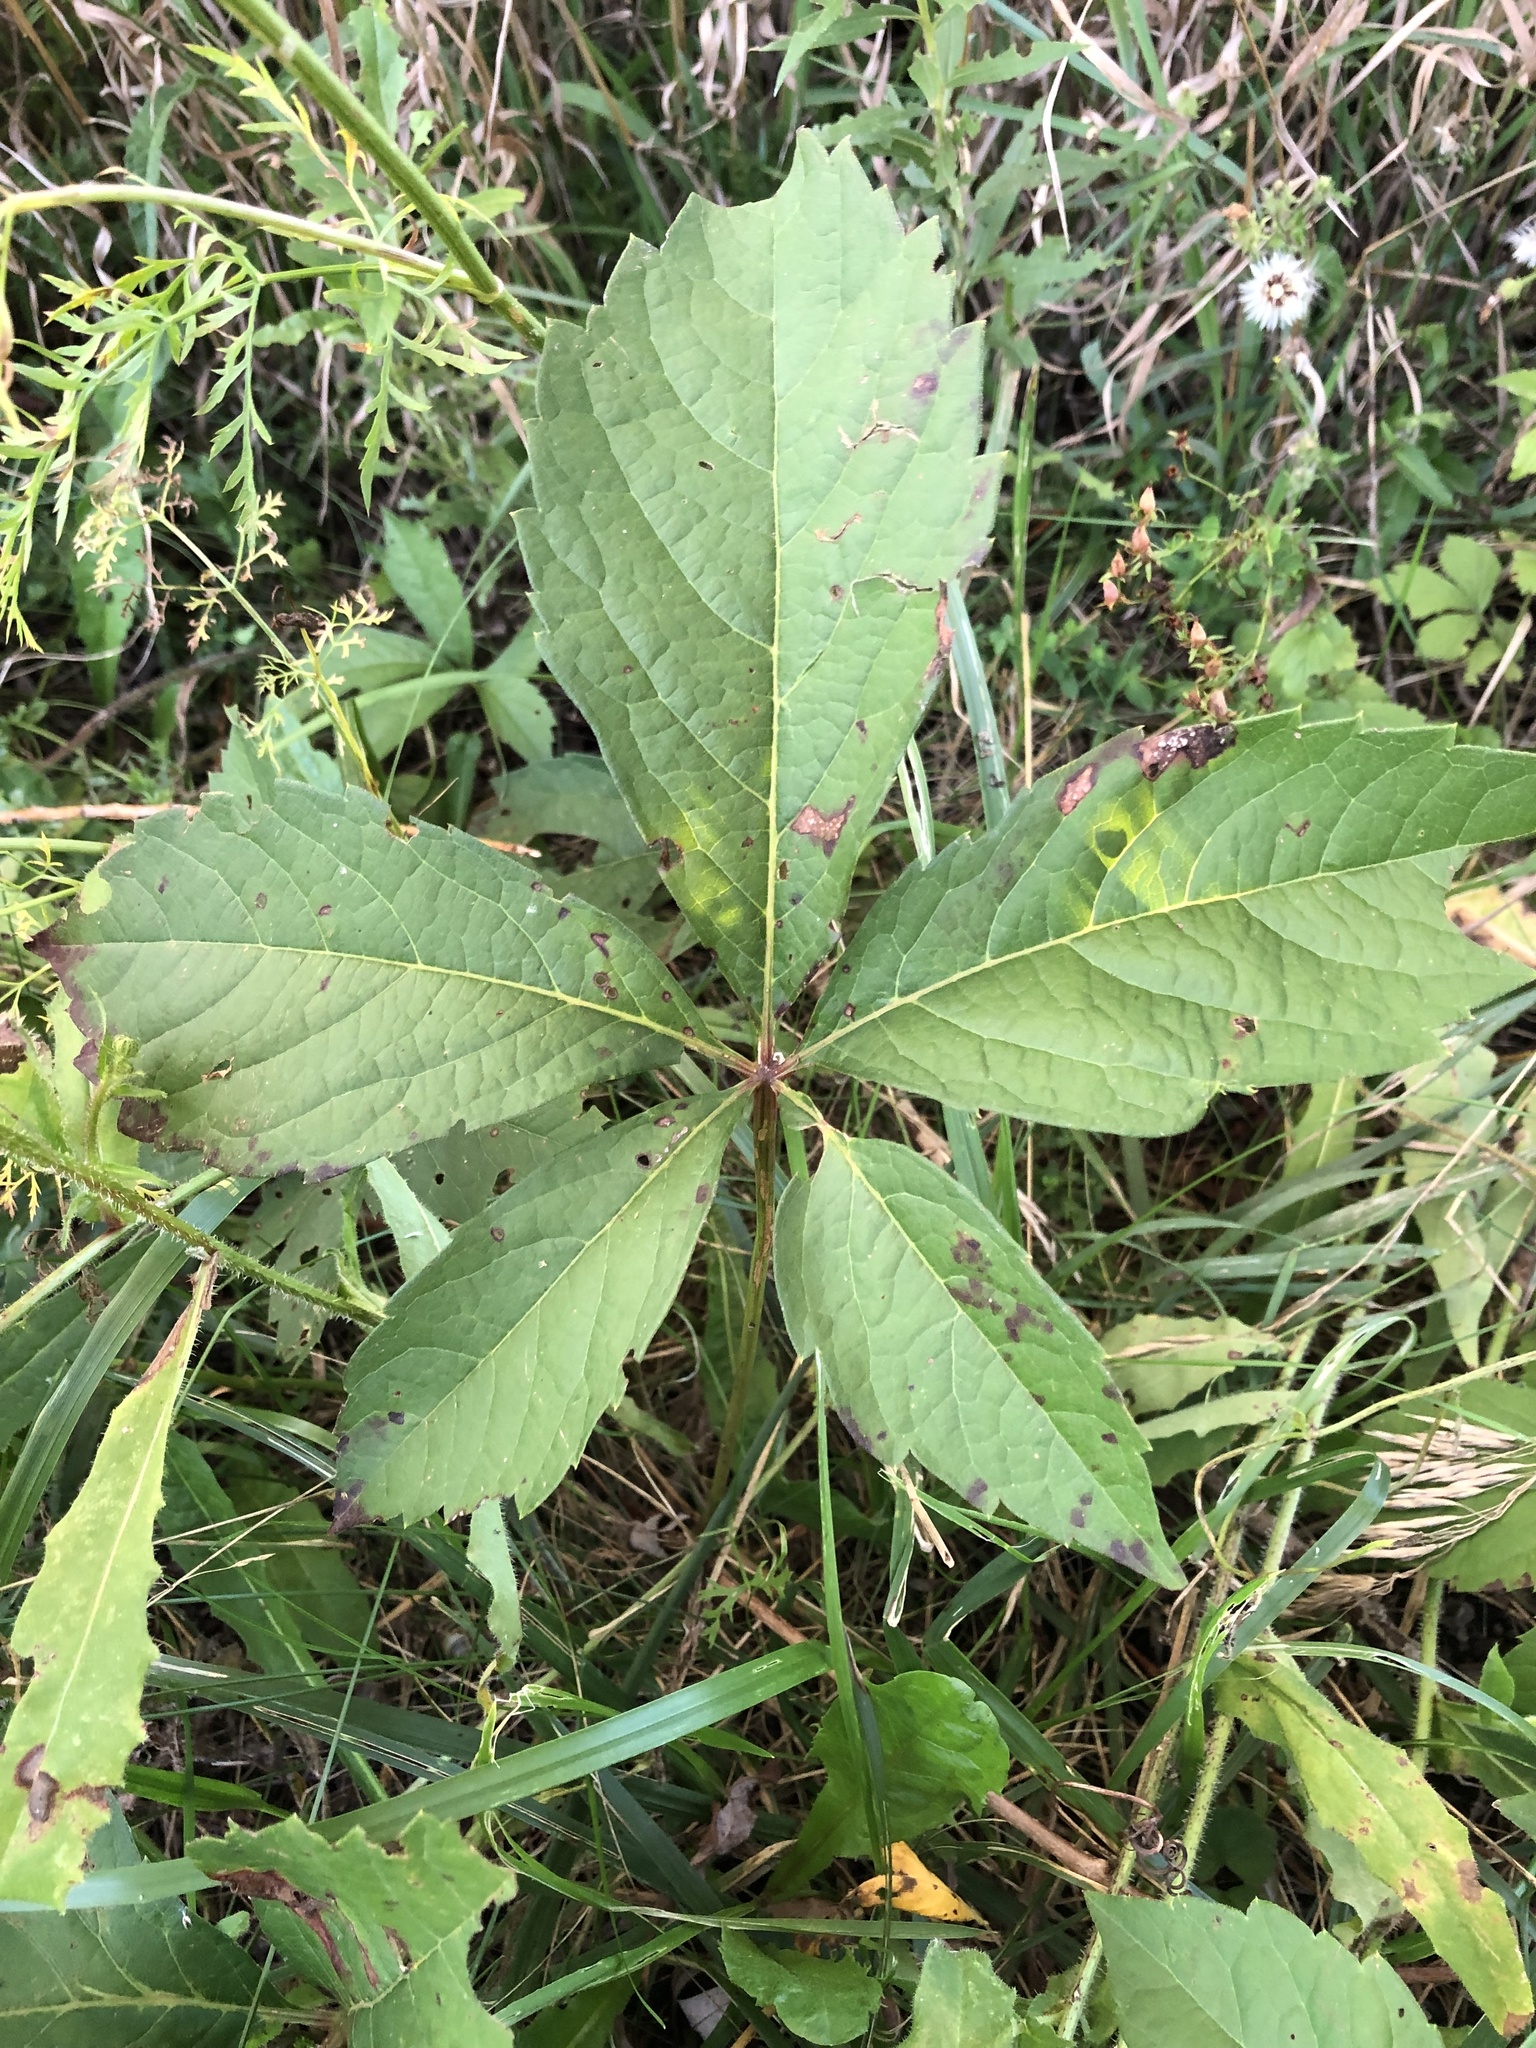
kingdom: Plantae
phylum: Tracheophyta
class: Magnoliopsida
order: Vitales
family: Vitaceae
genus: Parthenocissus
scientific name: Parthenocissus quinquefolia
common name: Virginia-creeper
